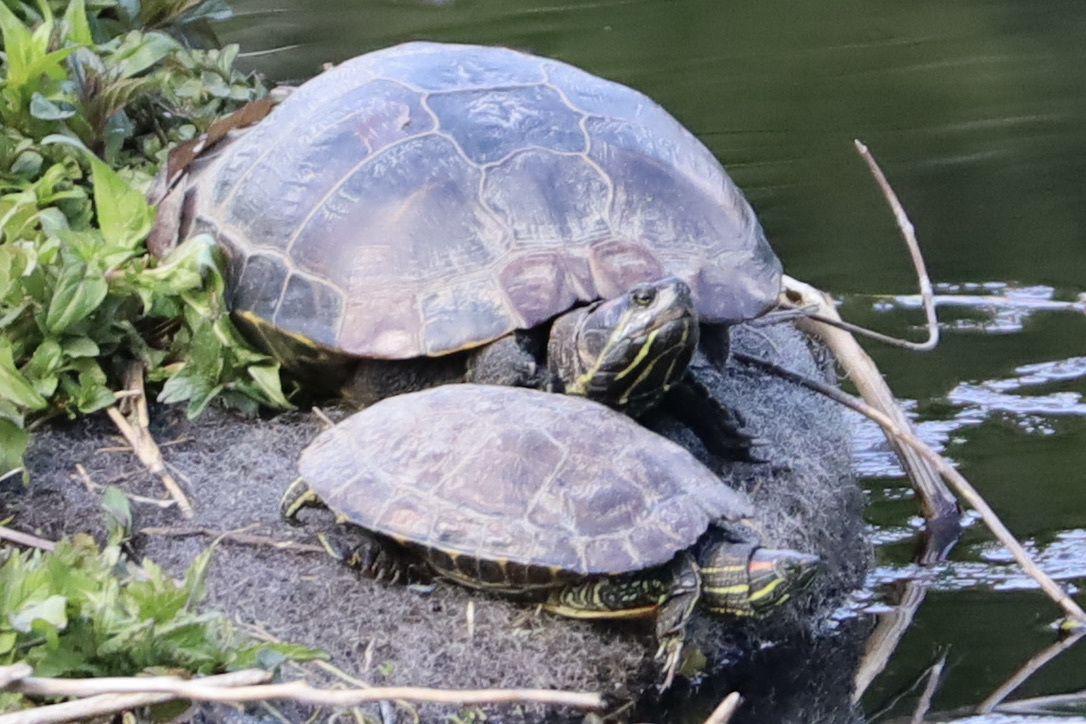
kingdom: Animalia
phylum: Chordata
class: Testudines
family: Emydidae
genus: Trachemys
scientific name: Trachemys scripta
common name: Slider
